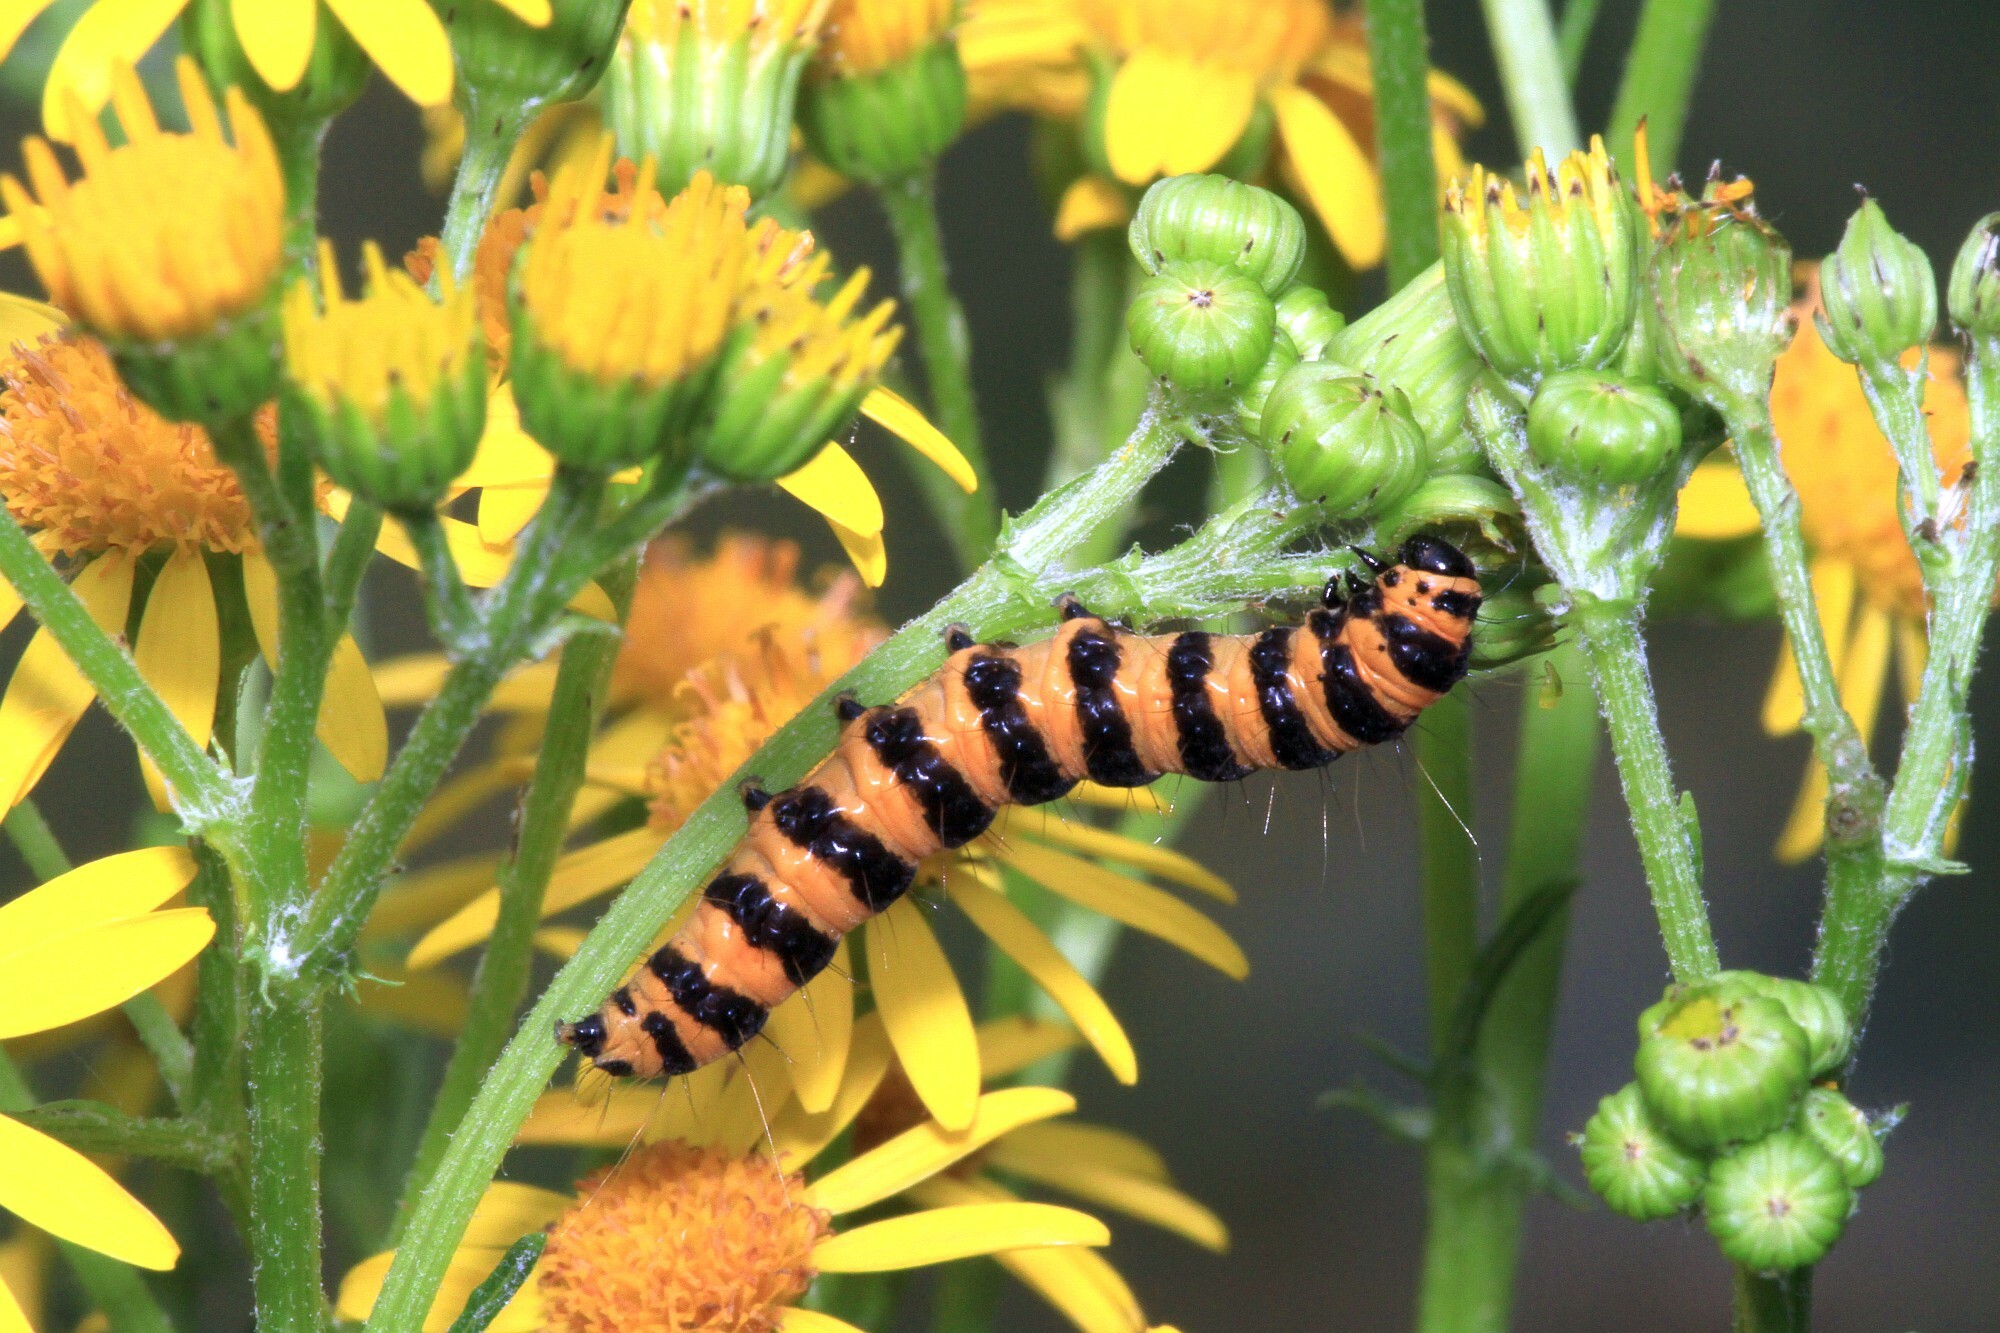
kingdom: Animalia
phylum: Arthropoda
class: Insecta
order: Lepidoptera
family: Erebidae
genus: Tyria
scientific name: Tyria jacobaeae
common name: Cinnabar
